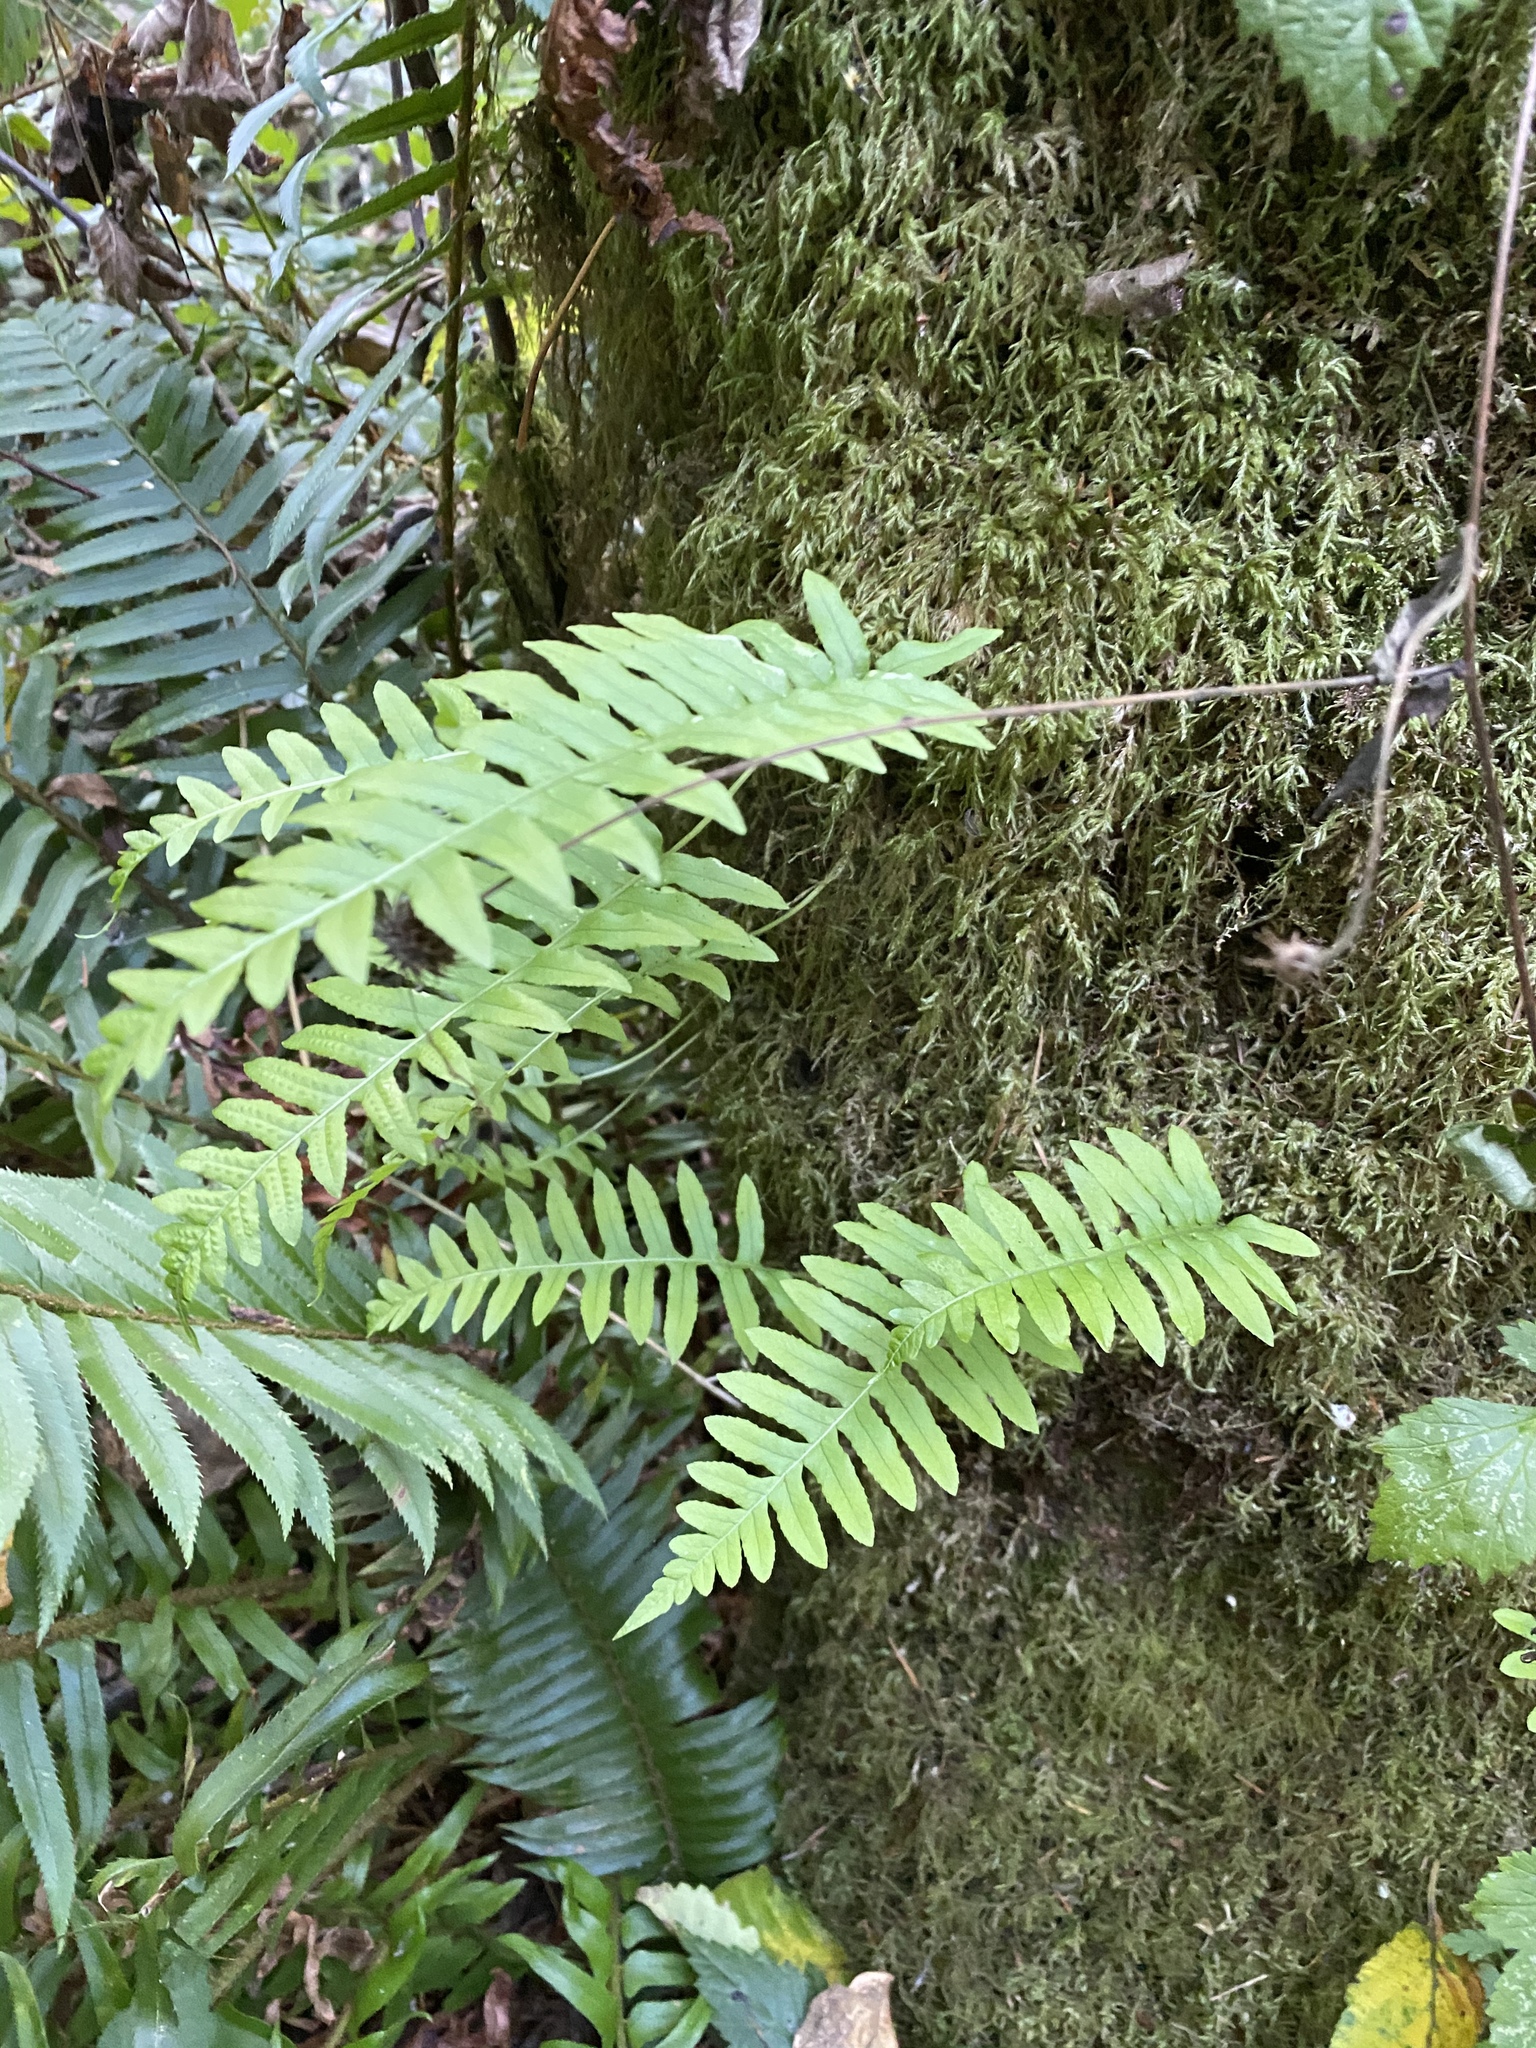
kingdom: Plantae
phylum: Tracheophyta
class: Polypodiopsida
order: Polypodiales
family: Polypodiaceae
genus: Polypodium
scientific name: Polypodium glycyrrhiza
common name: Licorice fern
